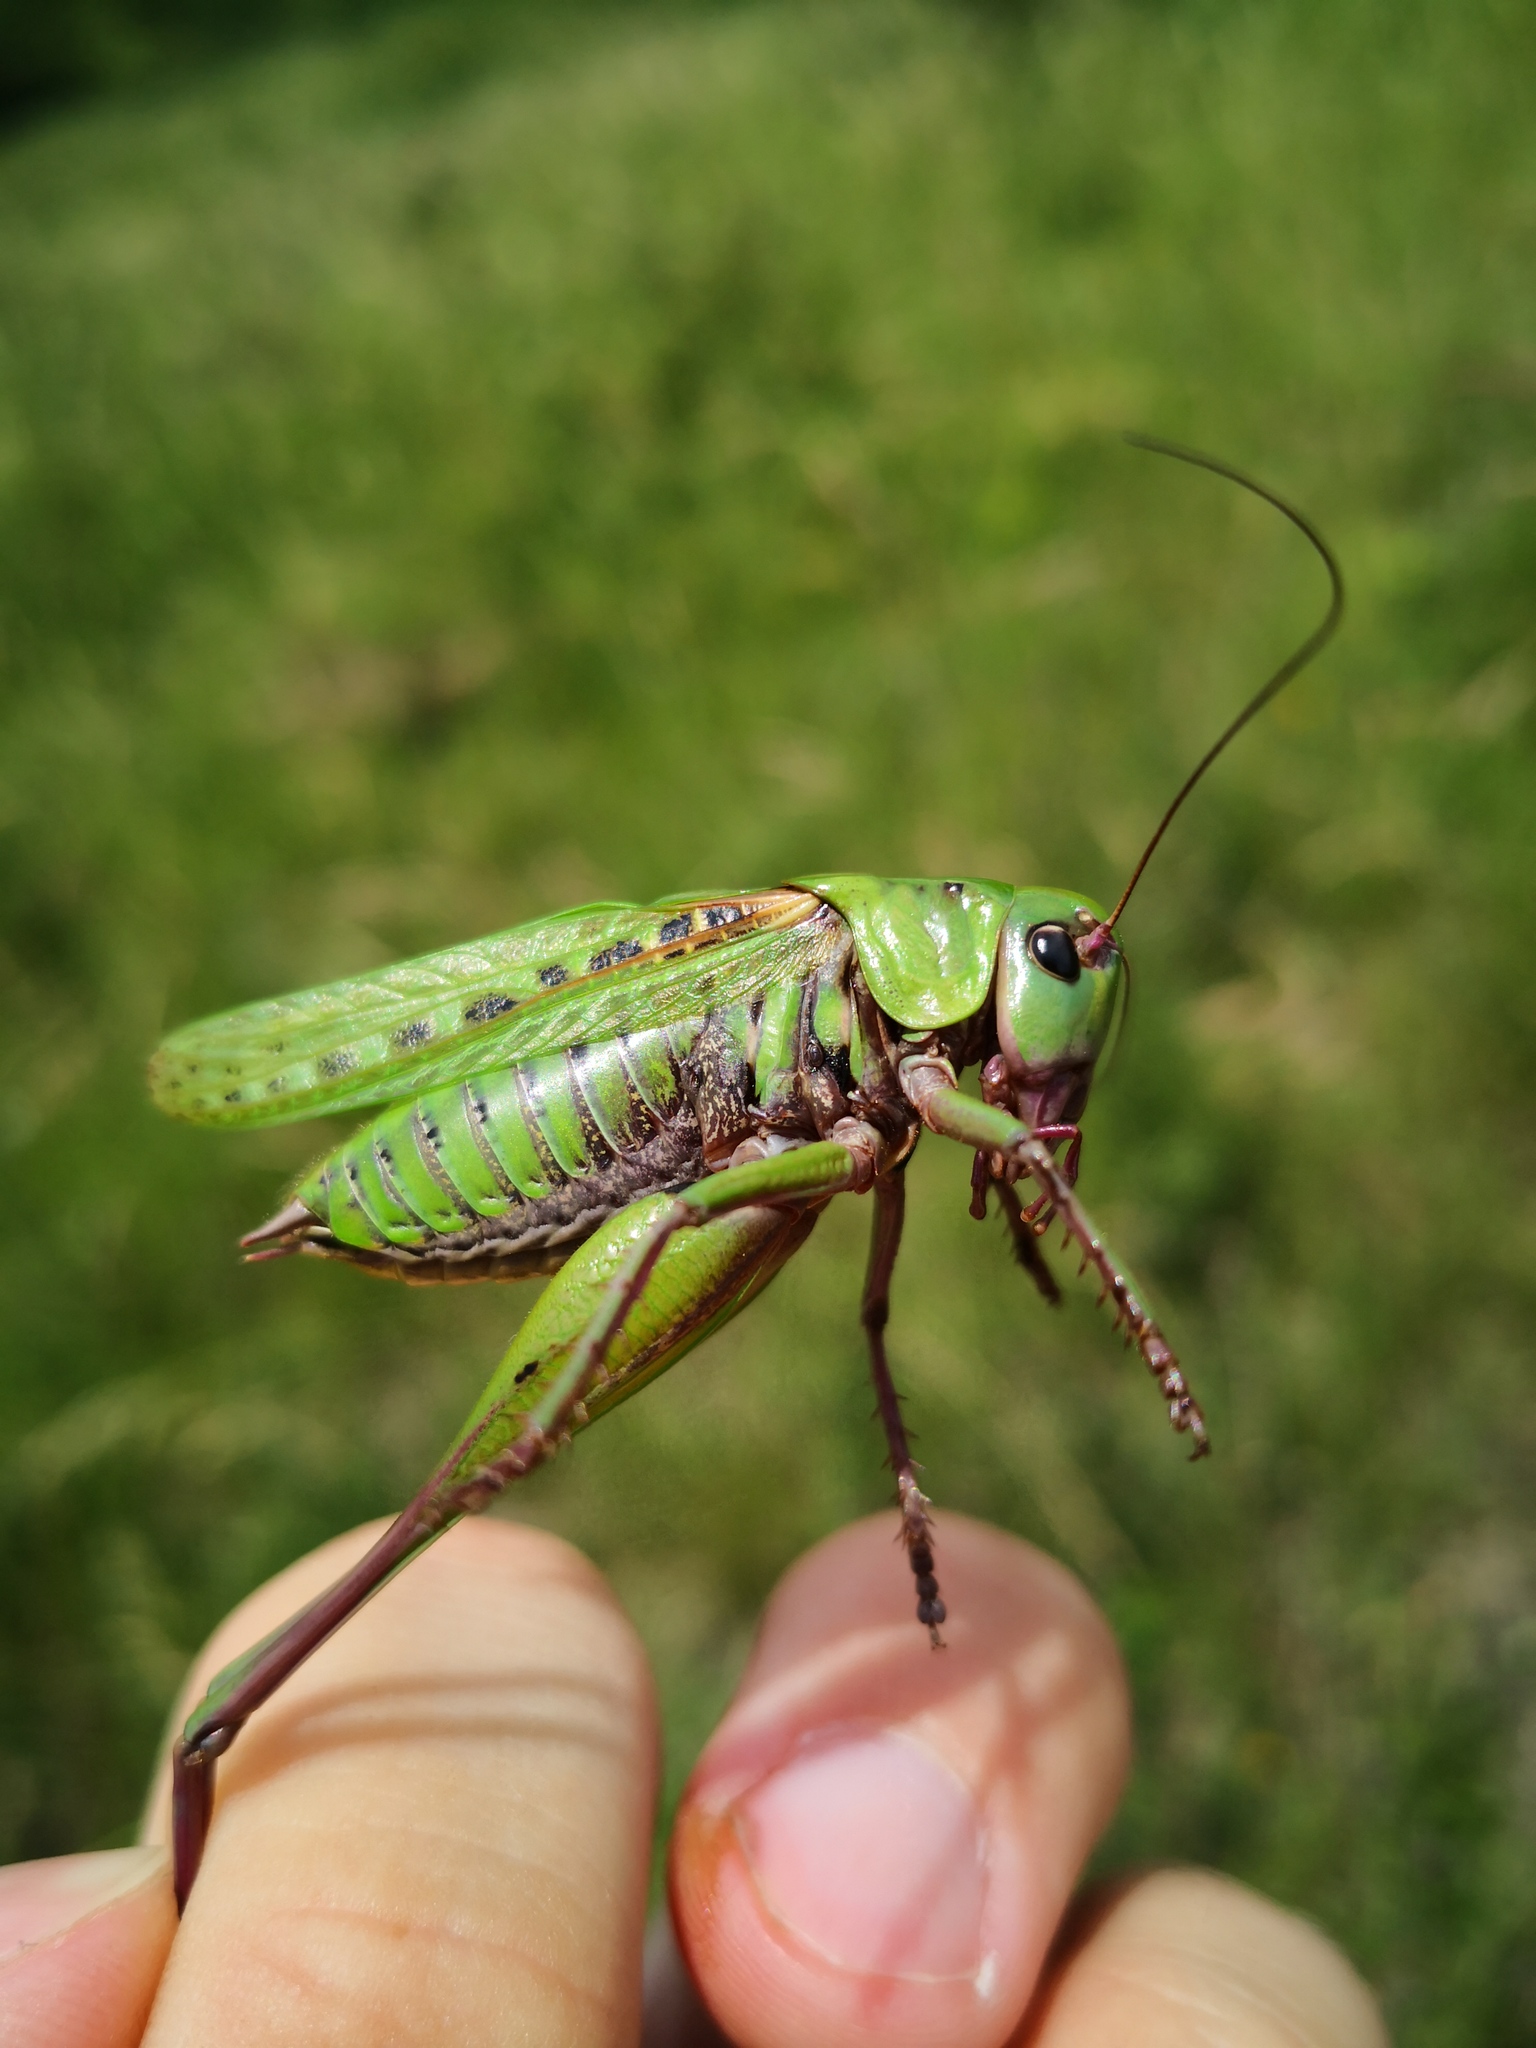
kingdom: Animalia
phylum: Arthropoda
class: Insecta
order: Orthoptera
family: Tettigoniidae
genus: Decticus
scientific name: Decticus verrucivorus
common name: Wart-biter
